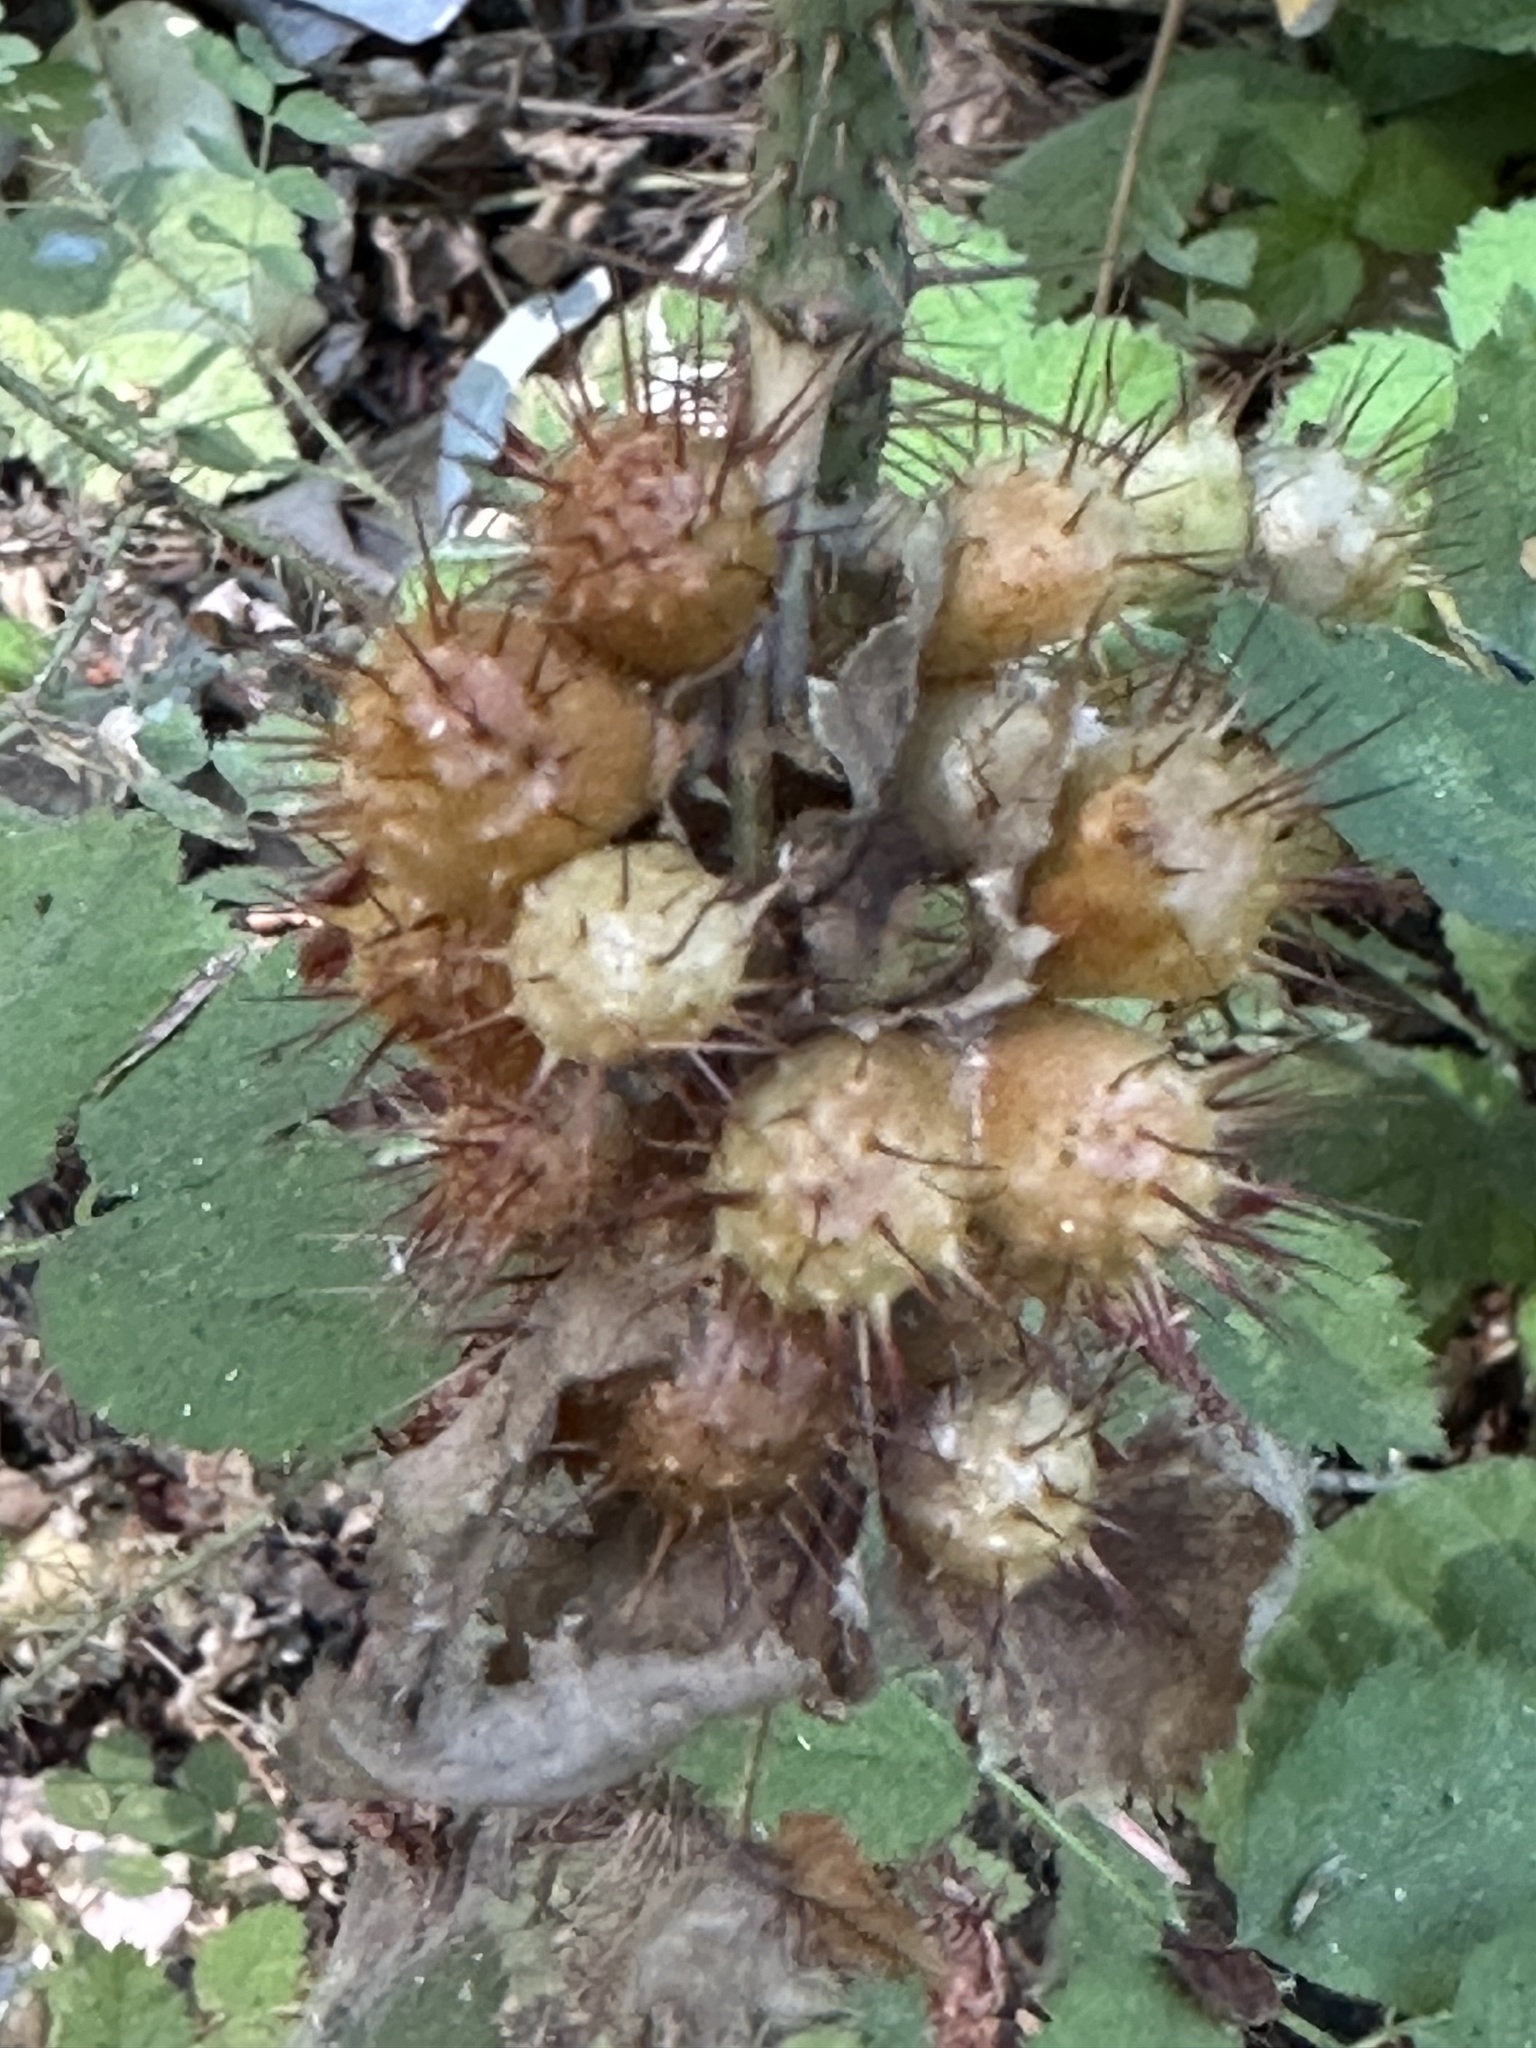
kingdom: Animalia
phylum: Arthropoda
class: Insecta
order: Hymenoptera
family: Cynipidae
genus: Diplolepis
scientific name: Diplolepis polita
